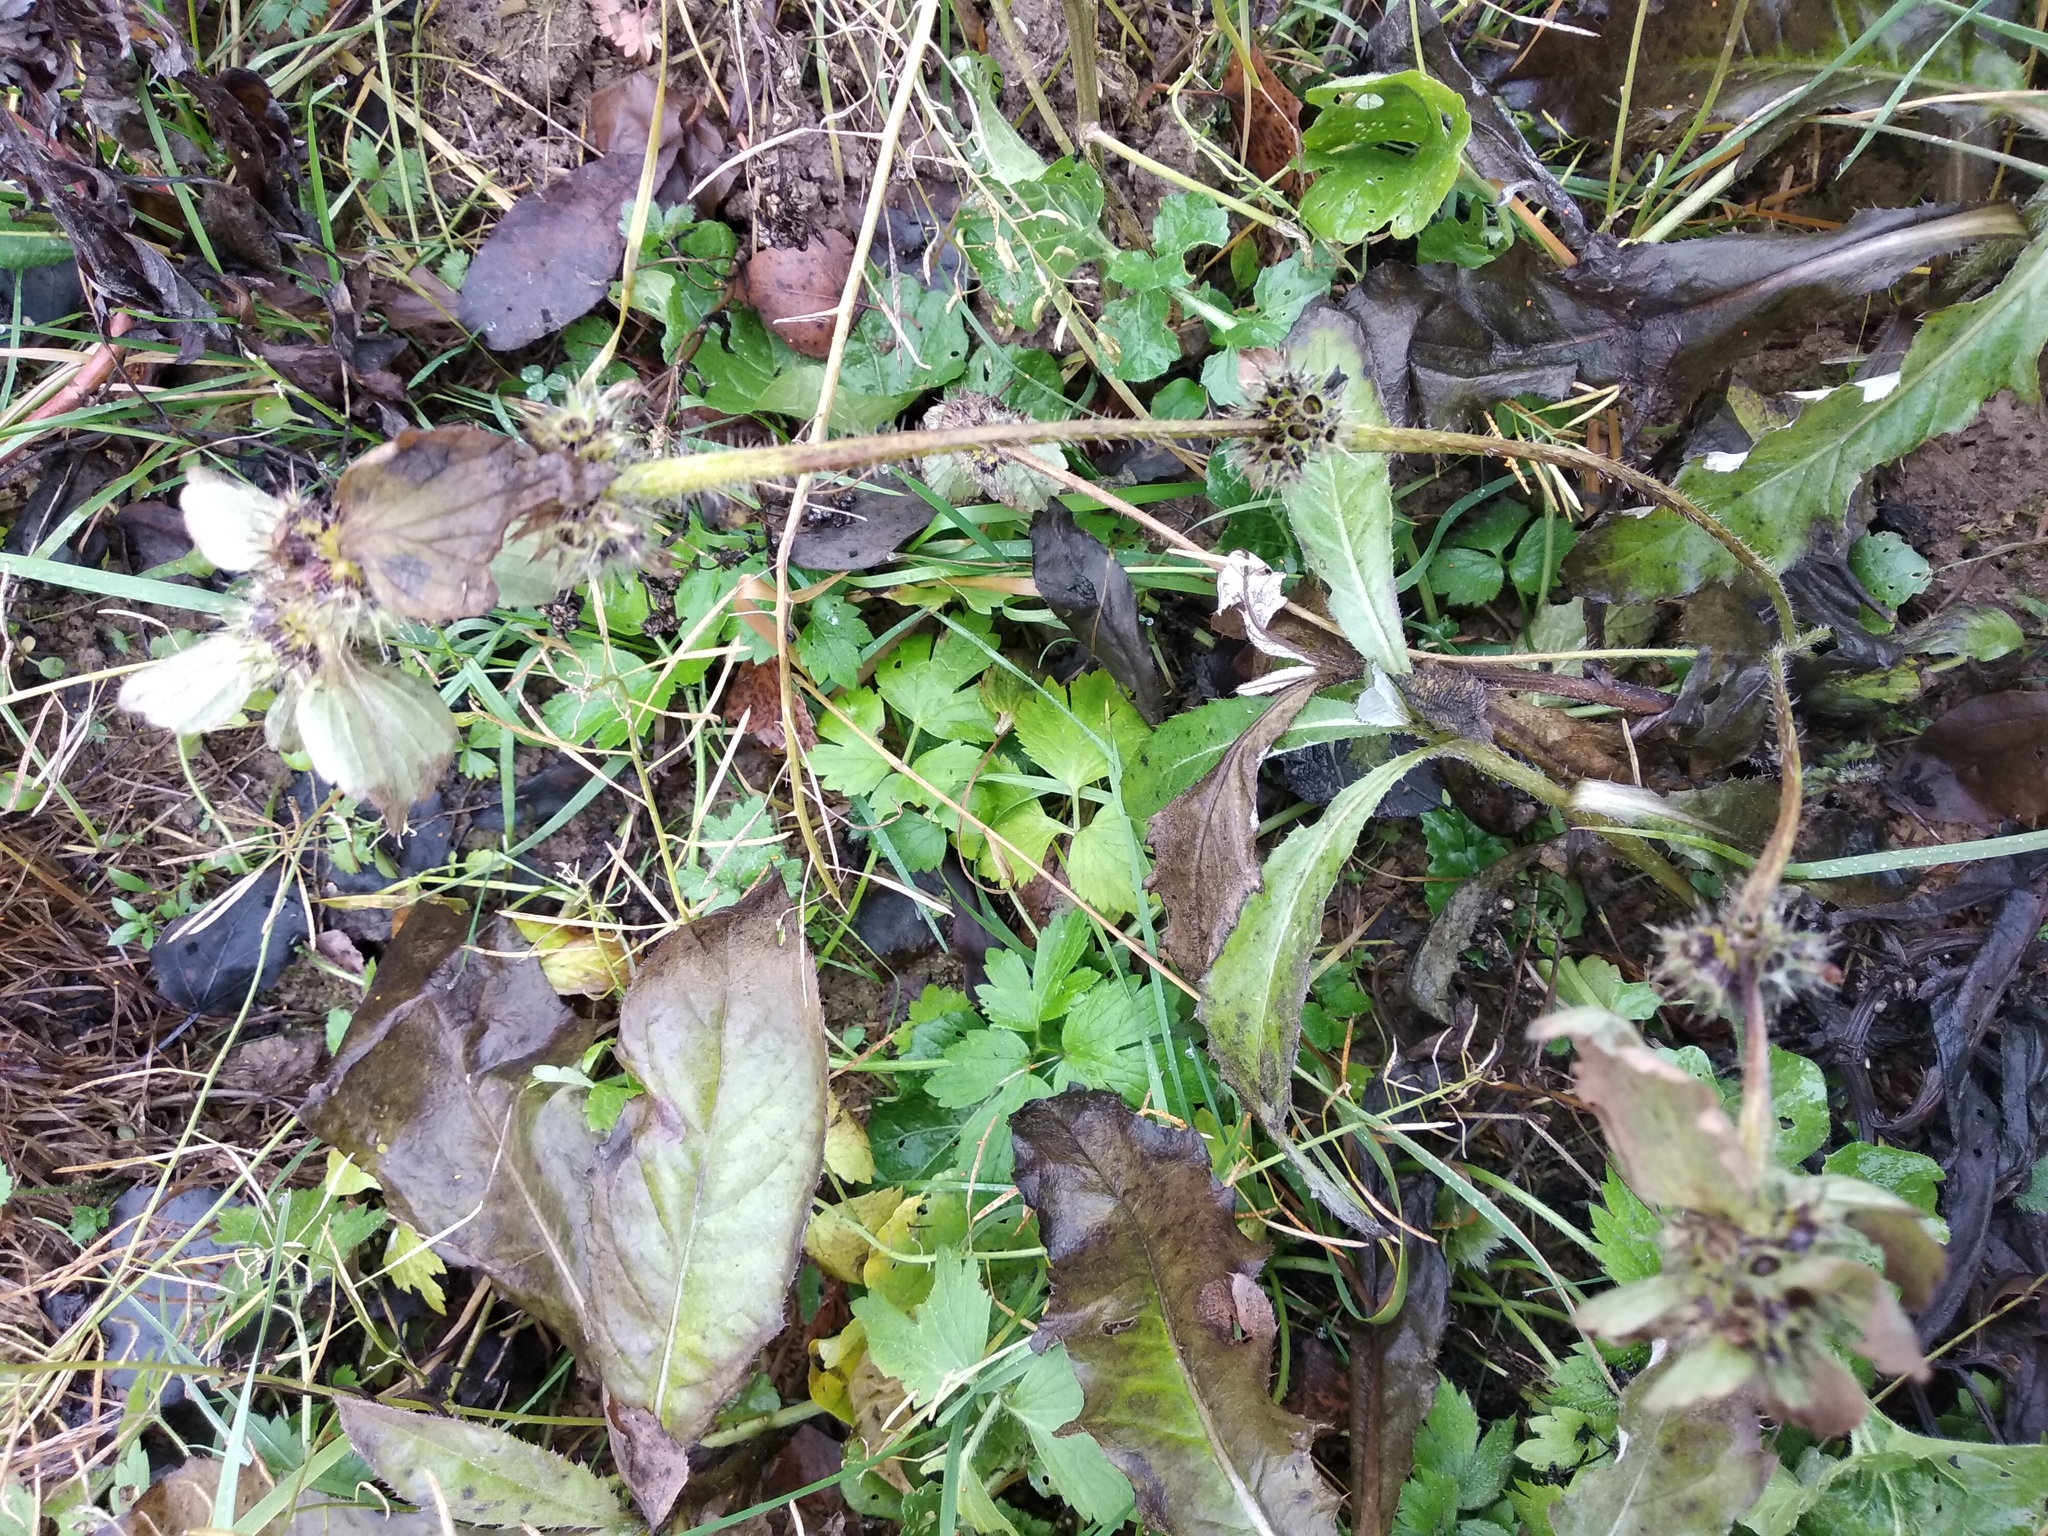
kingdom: Plantae
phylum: Tracheophyta
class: Magnoliopsida
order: Lamiales
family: Lamiaceae
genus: Galeopsis
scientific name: Galeopsis
